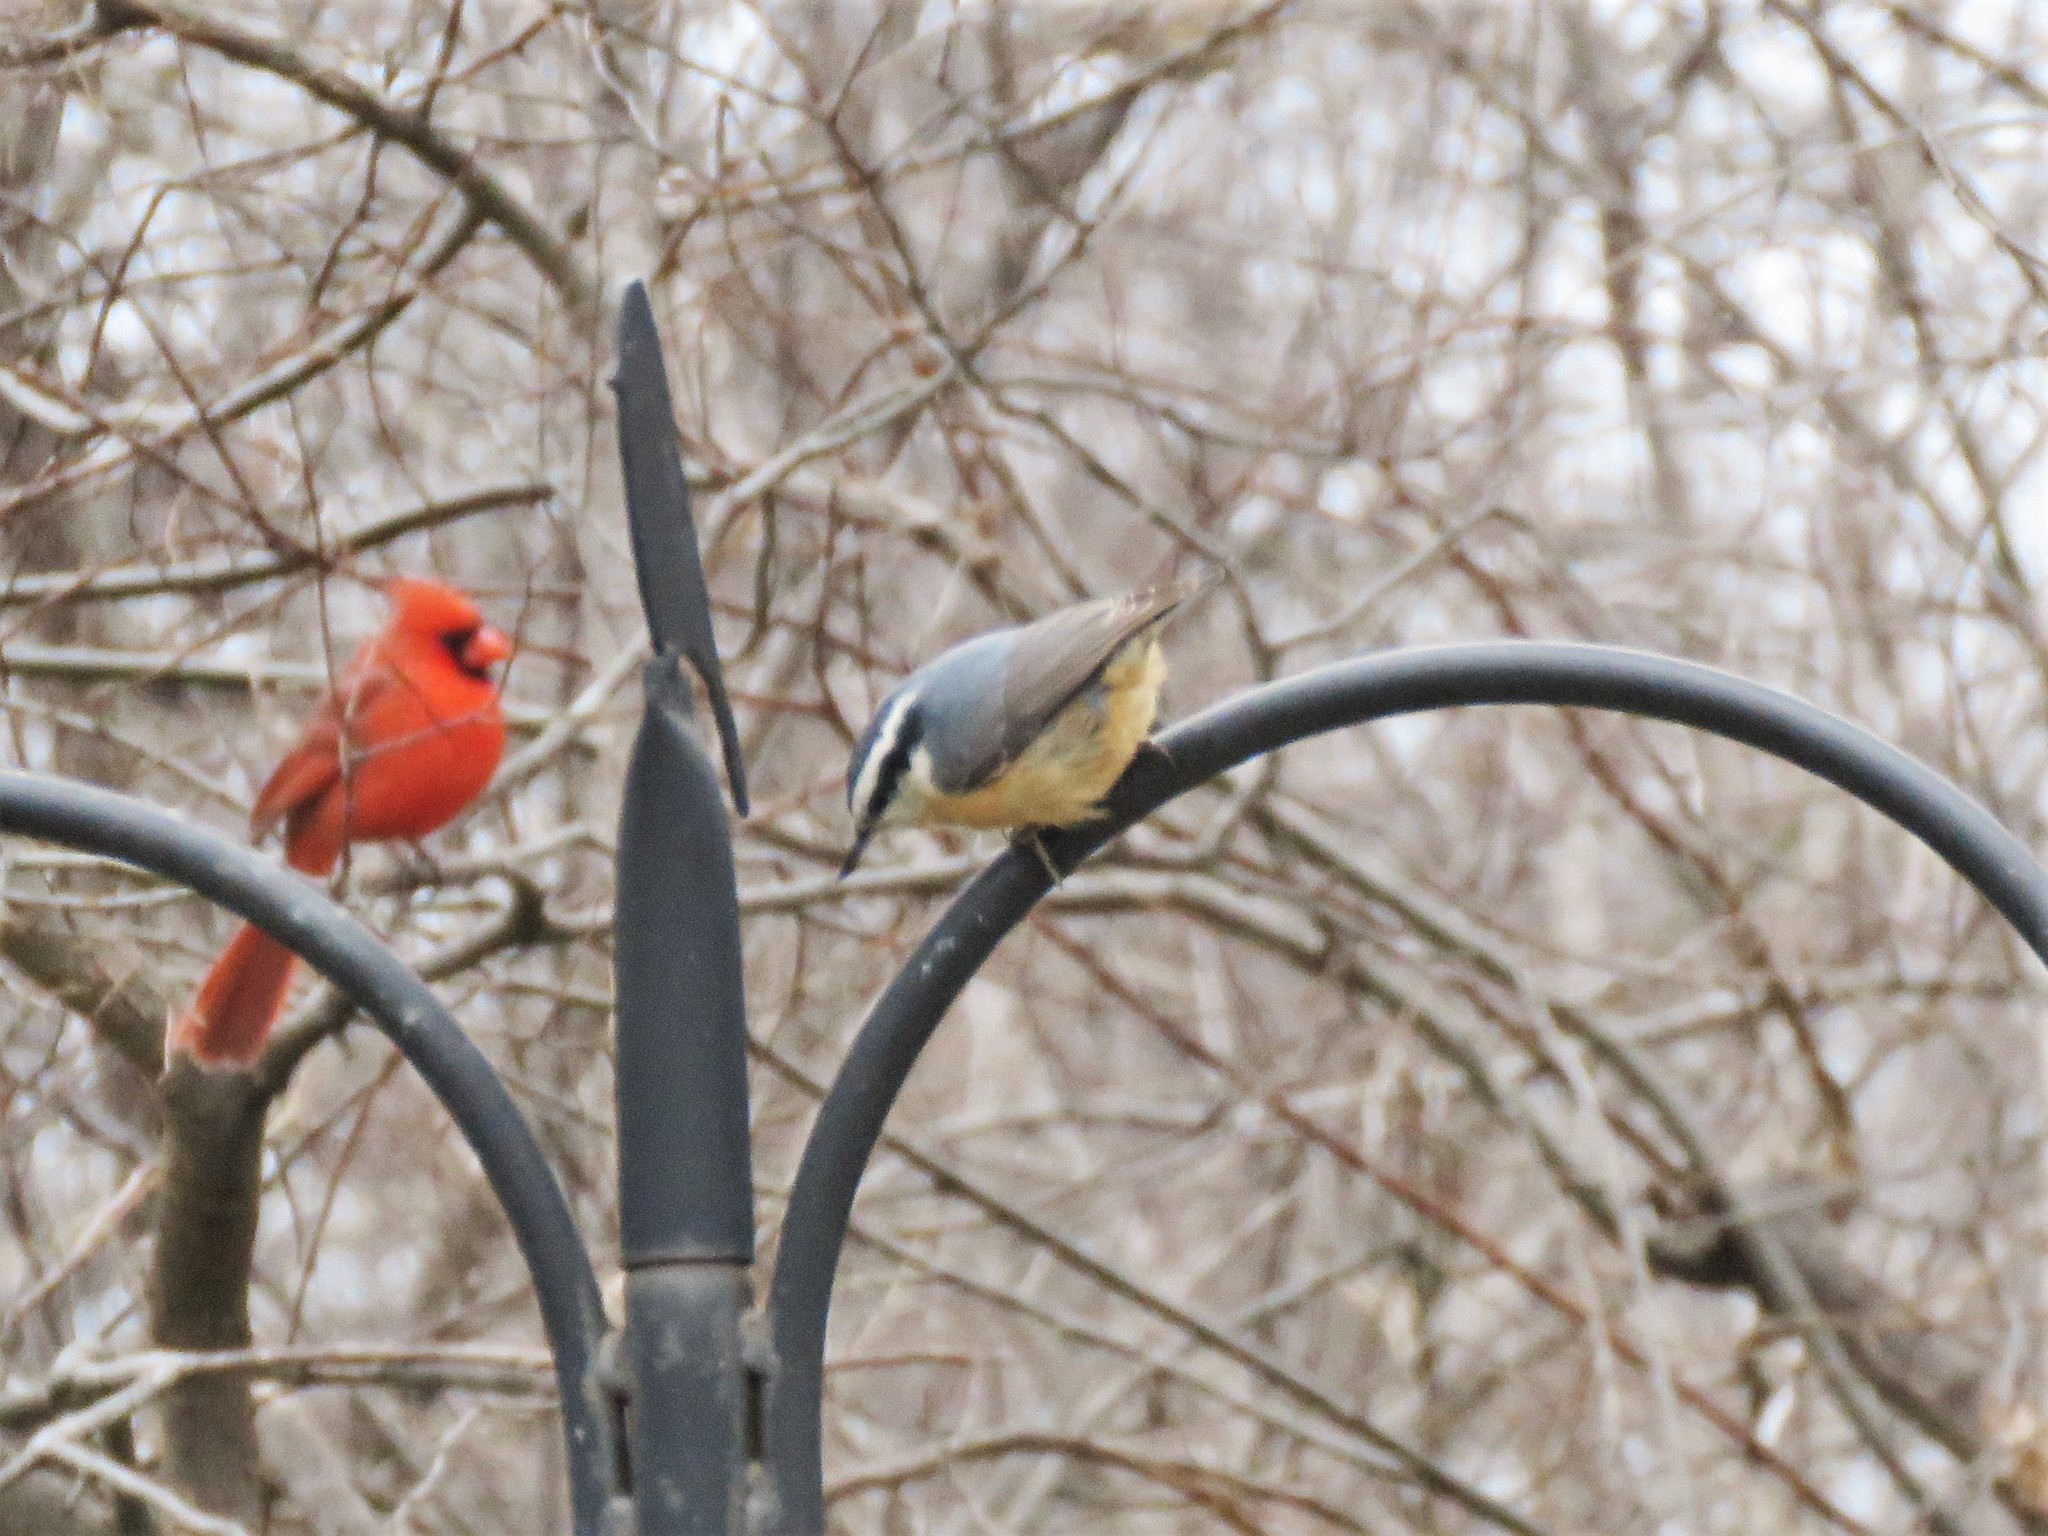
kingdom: Animalia
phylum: Chordata
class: Aves
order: Passeriformes
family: Sittidae
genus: Sitta
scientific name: Sitta canadensis
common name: Red-breasted nuthatch
